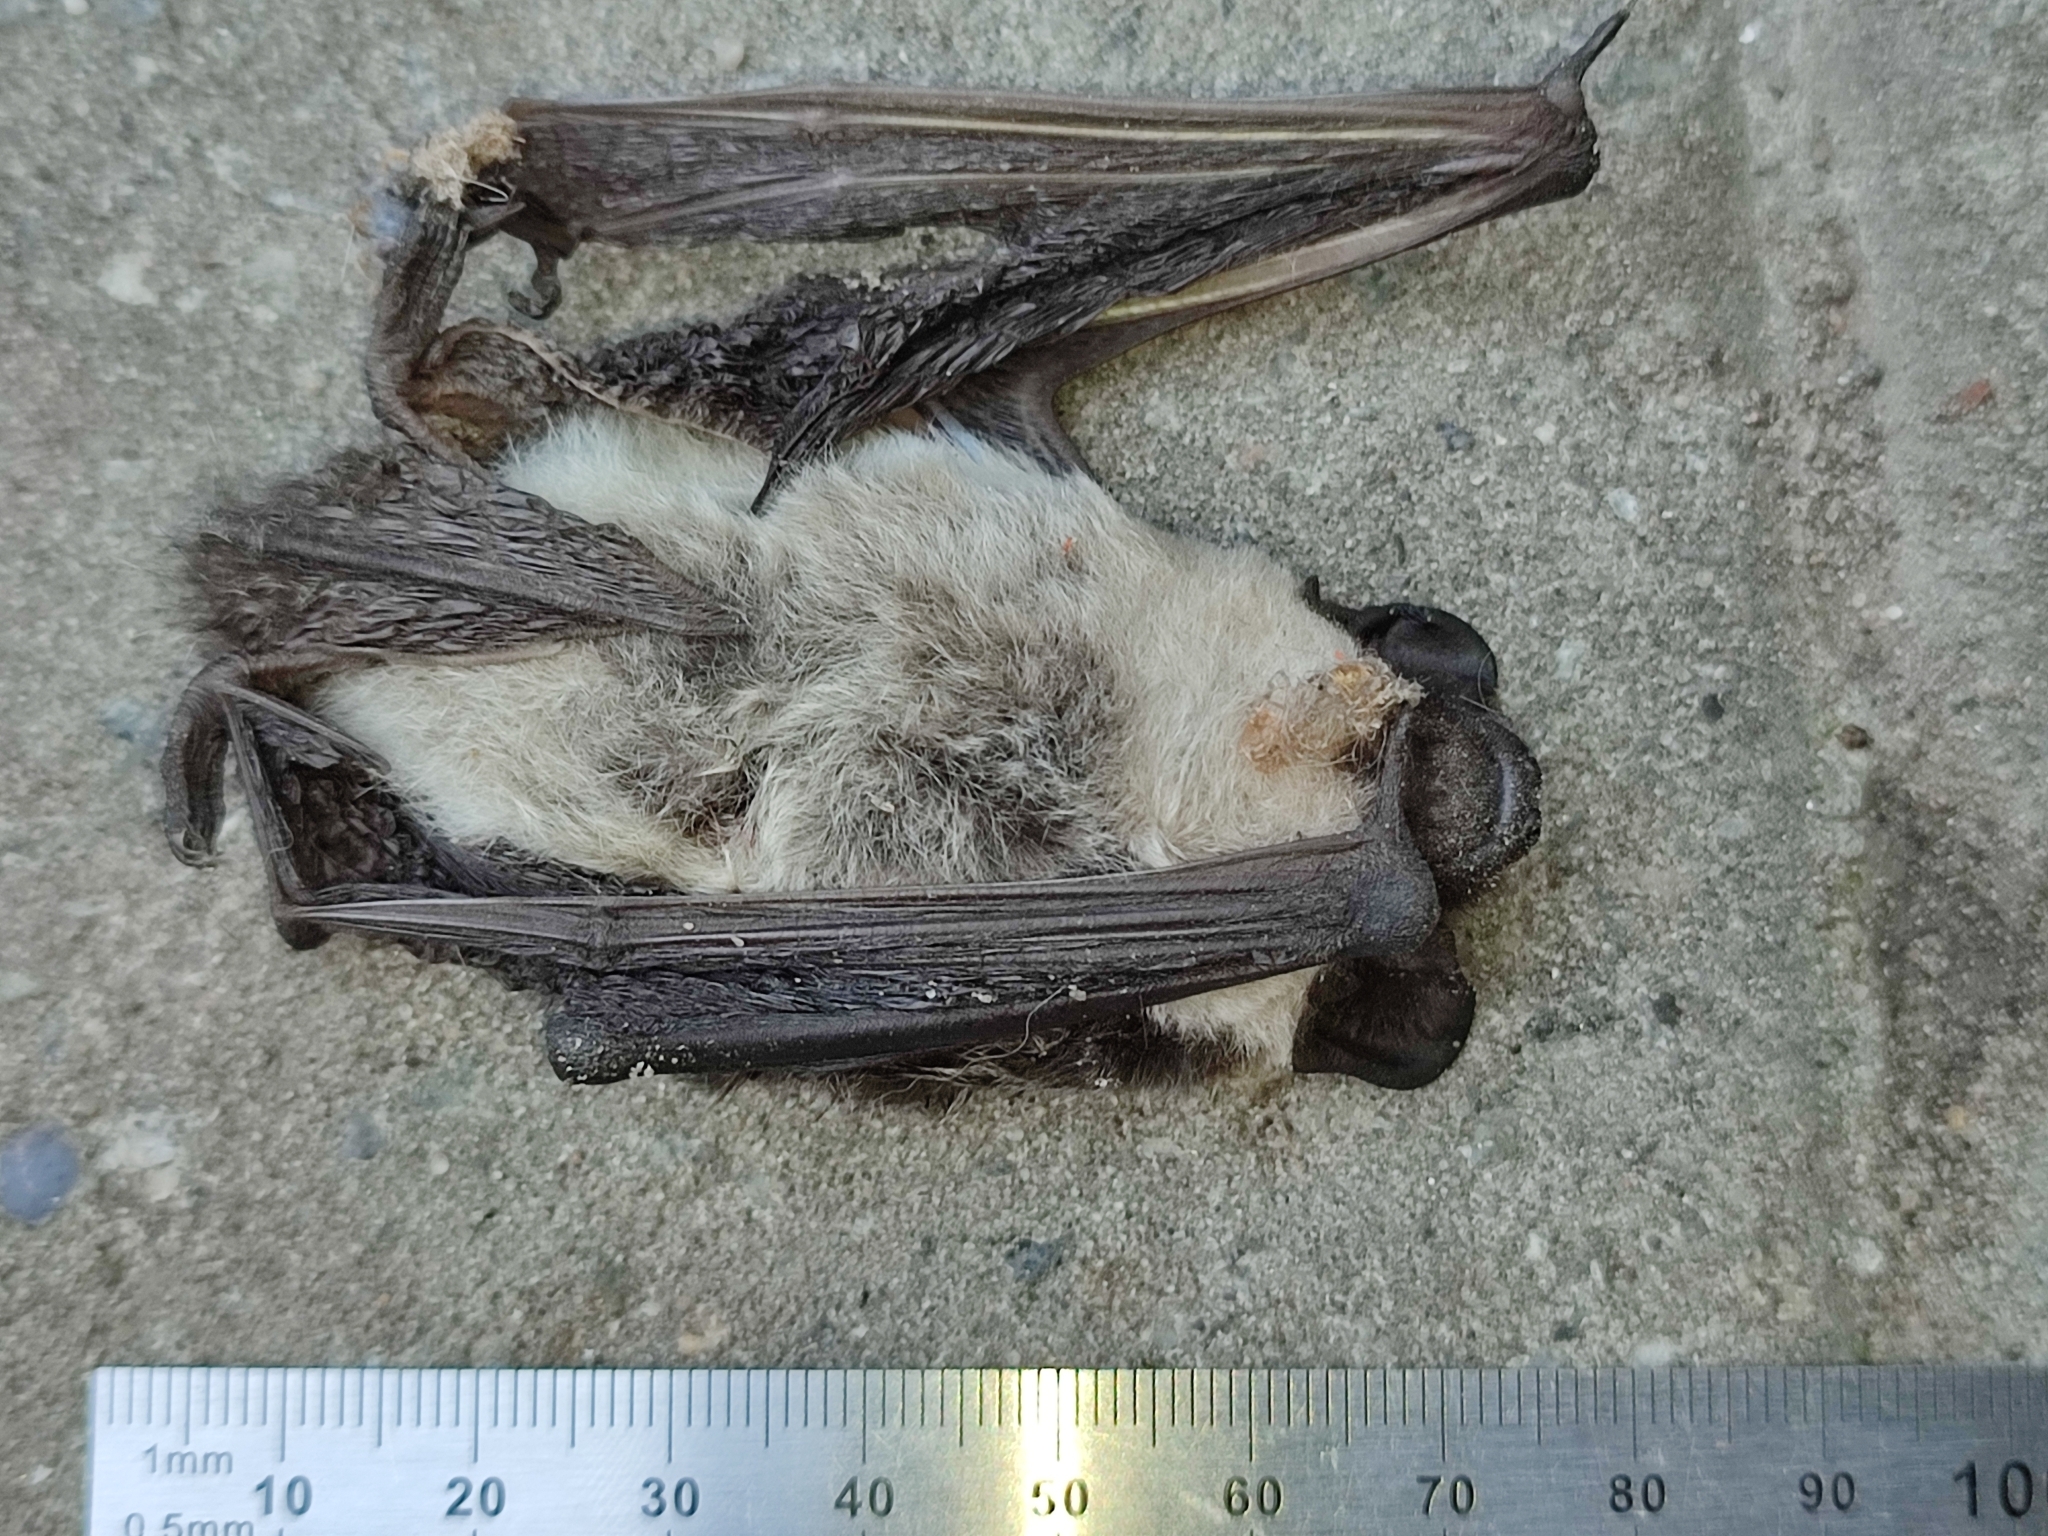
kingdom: Animalia
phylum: Chordata
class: Mammalia
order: Chiroptera
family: Vespertilionidae
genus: Vespertilio
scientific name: Vespertilio murinus
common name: Particolored bat
